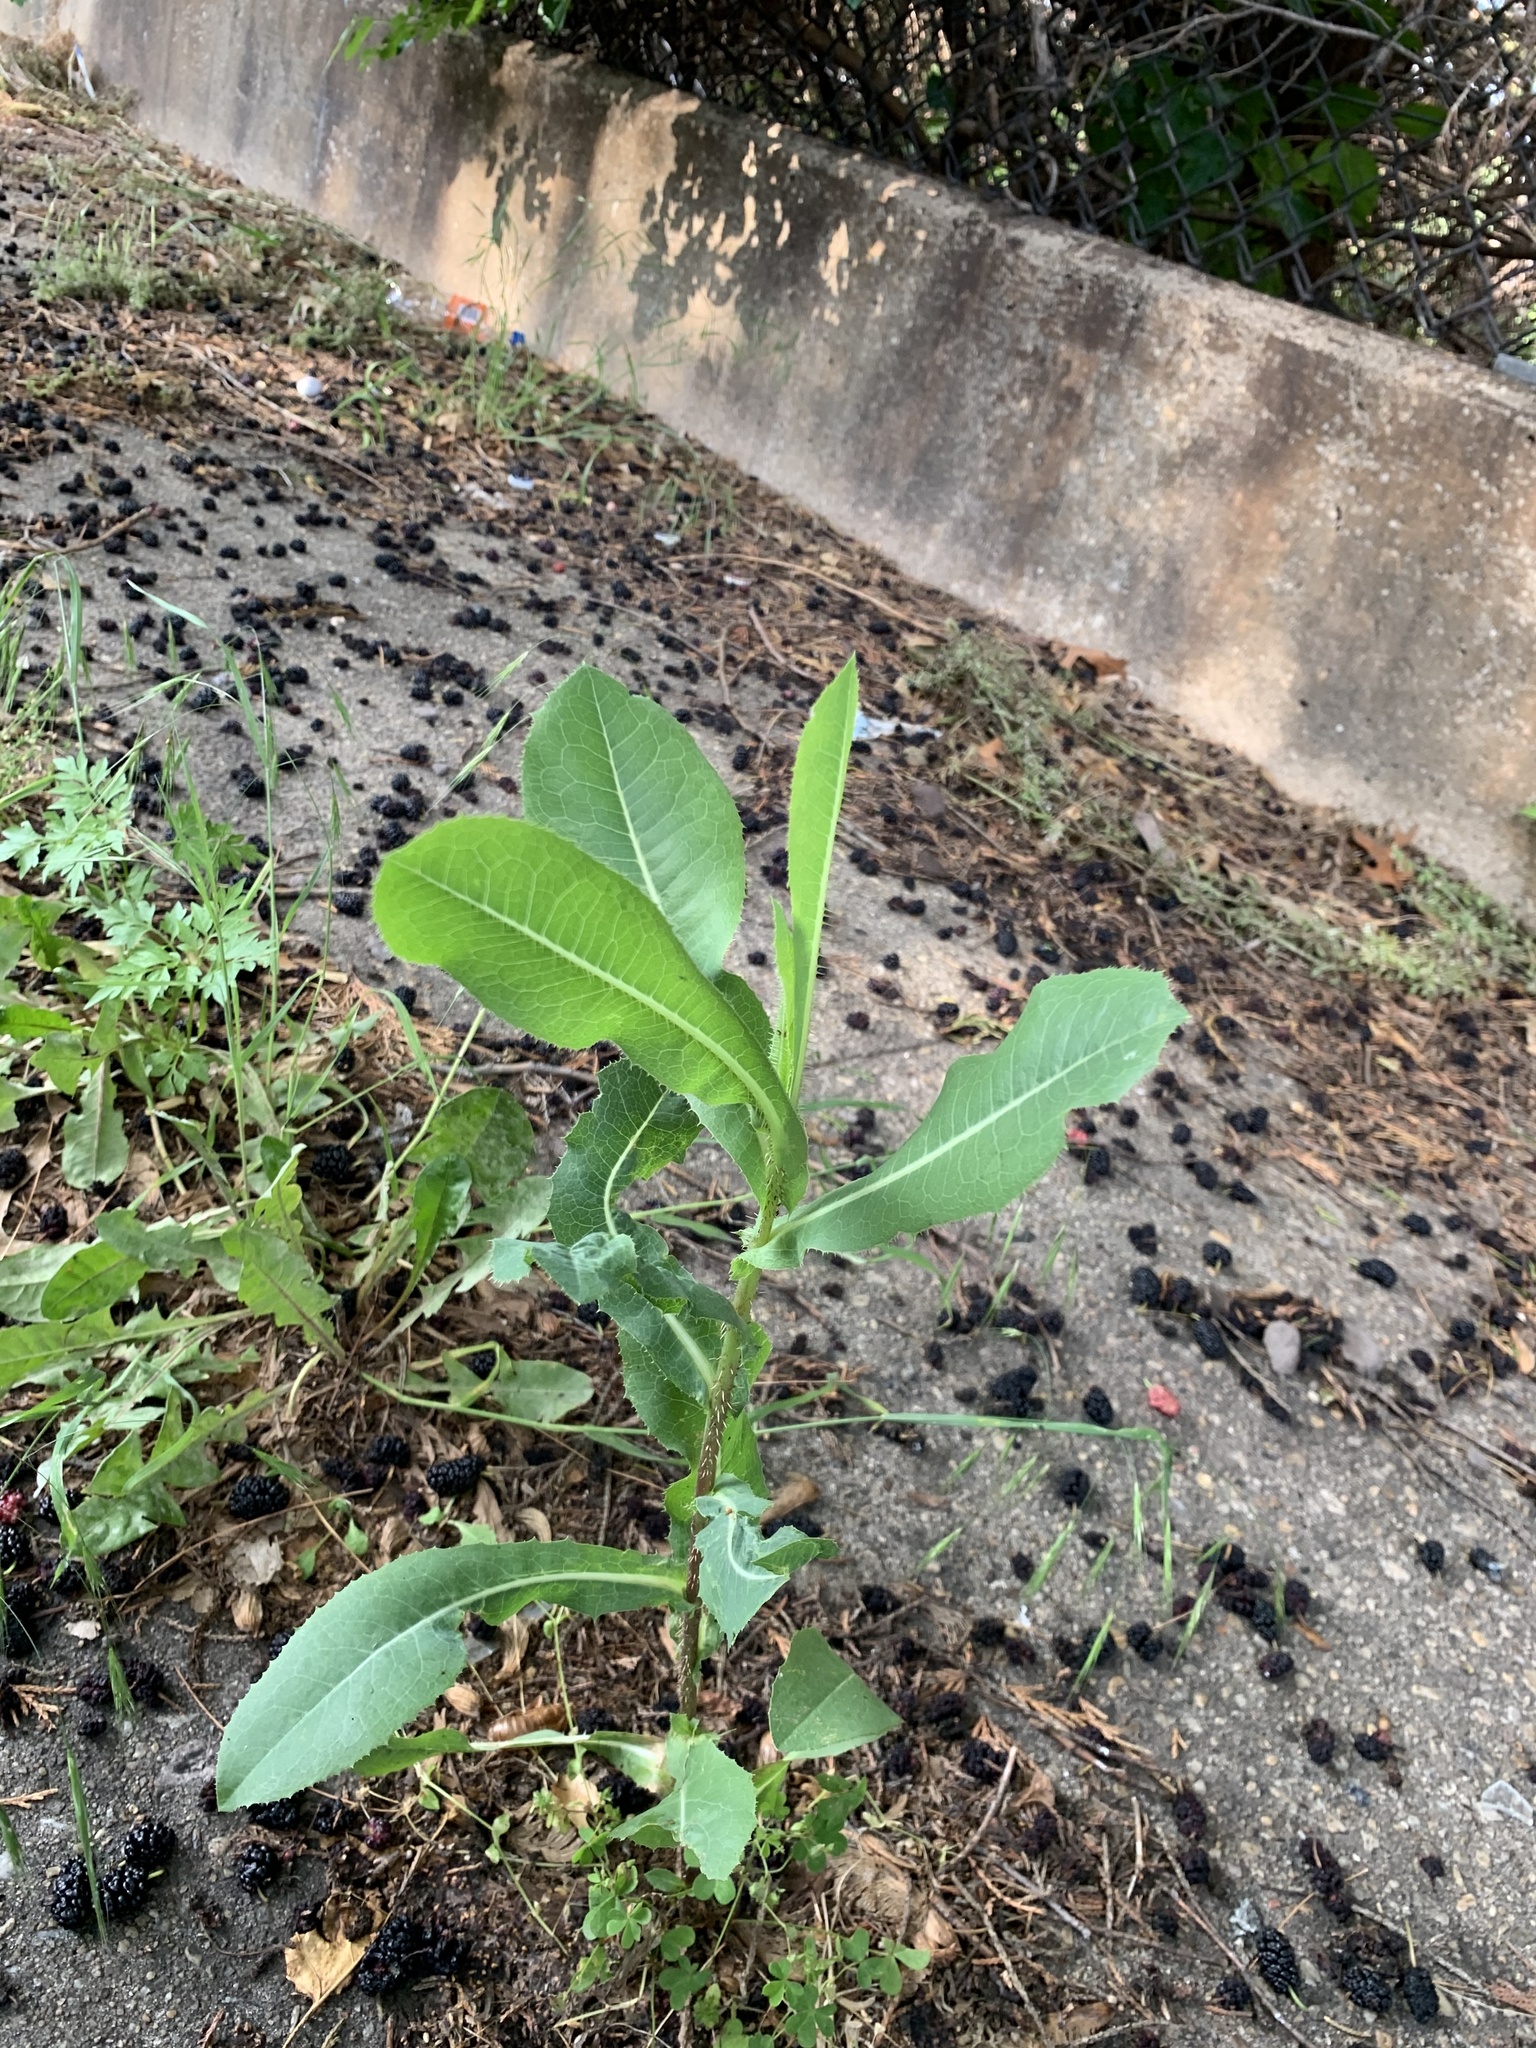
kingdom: Plantae
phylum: Tracheophyta
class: Magnoliopsida
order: Asterales
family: Asteraceae
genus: Lactuca
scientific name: Lactuca serriola
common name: Prickly lettuce
